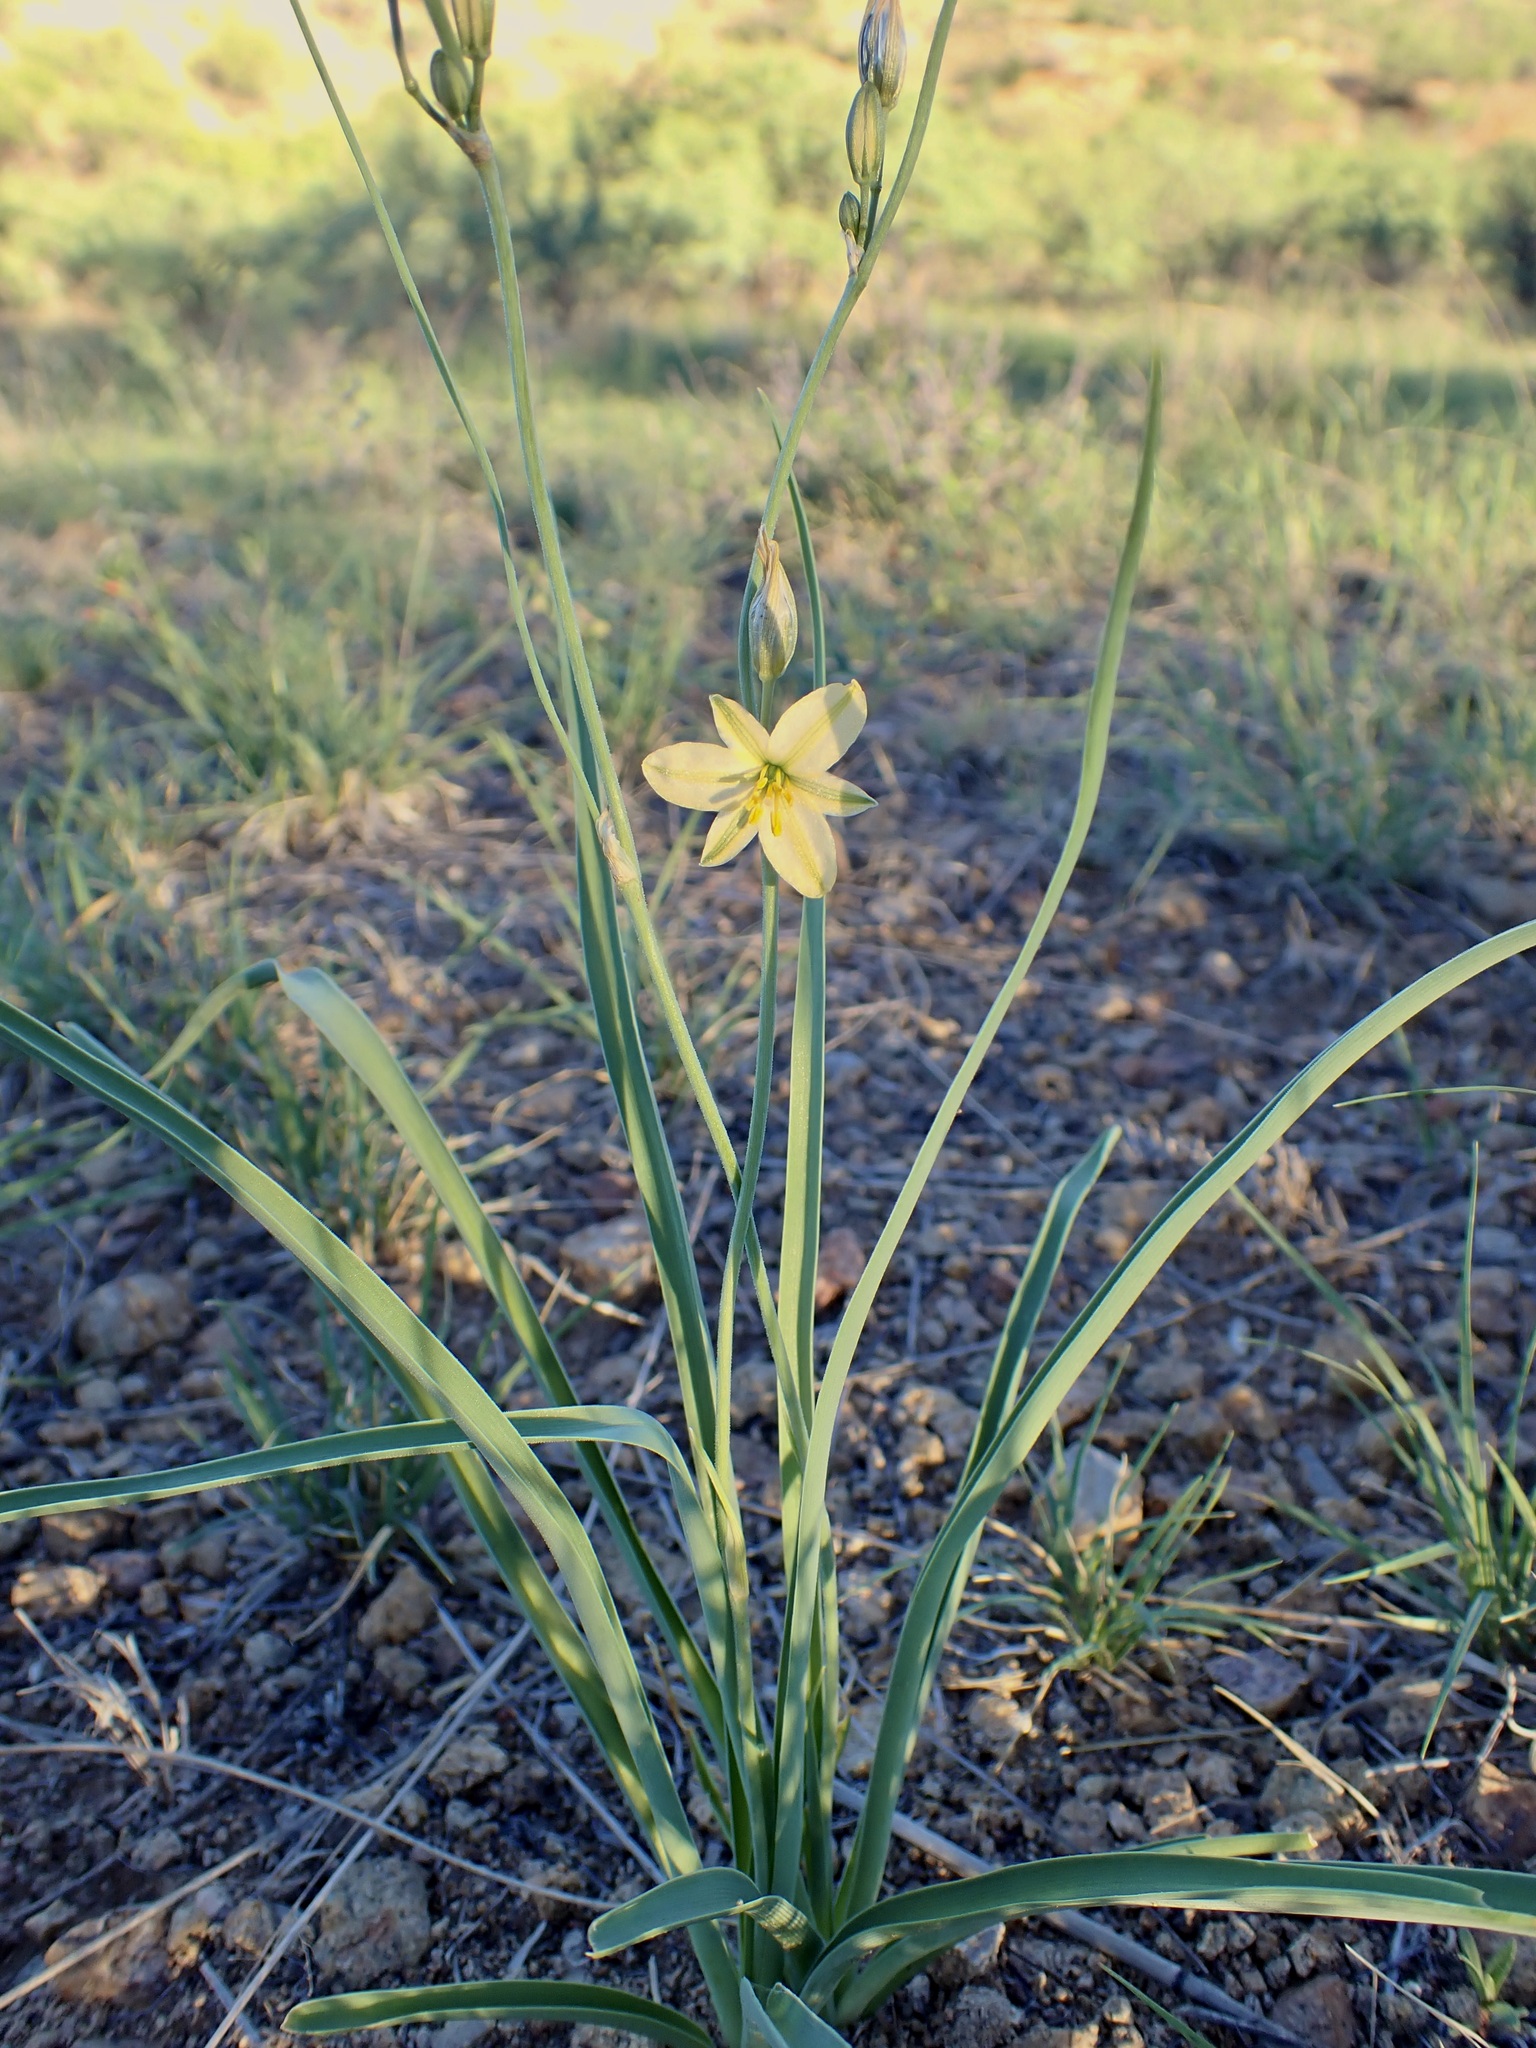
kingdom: Plantae
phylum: Tracheophyta
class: Liliopsida
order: Asparagales
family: Asparagaceae
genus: Echeandia
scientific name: Echeandia flavescens
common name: Amberlily
